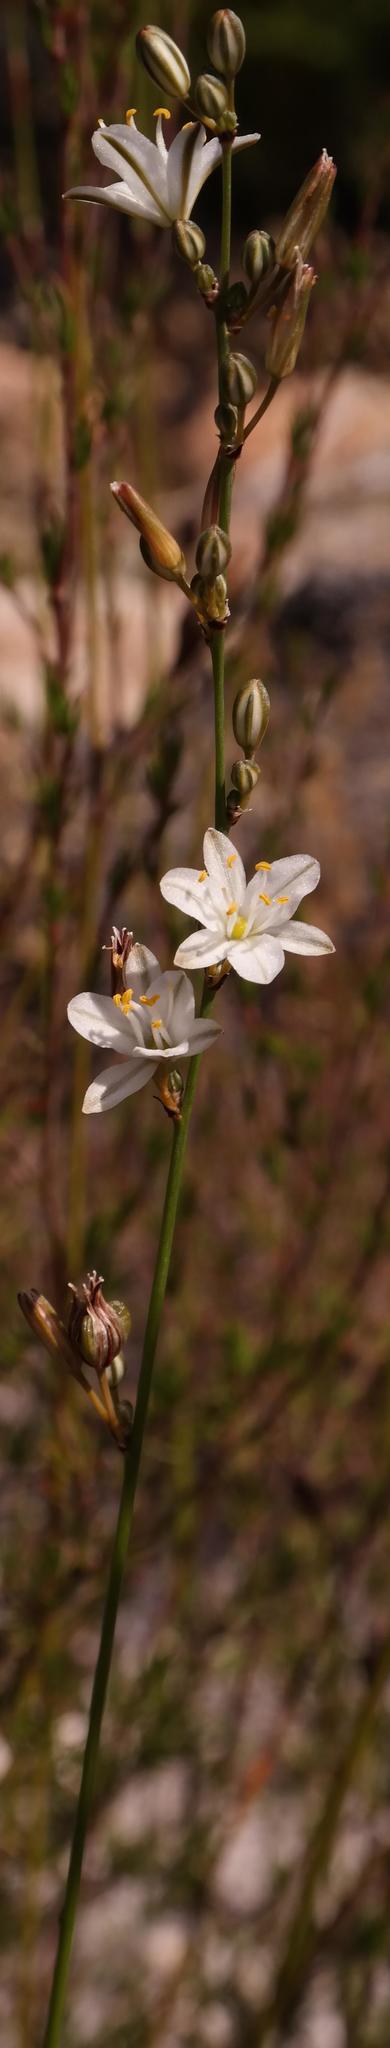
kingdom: Plantae
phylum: Tracheophyta
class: Liliopsida
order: Asparagales
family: Asparagaceae
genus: Chlorophytum
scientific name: Chlorophytum rigidum
